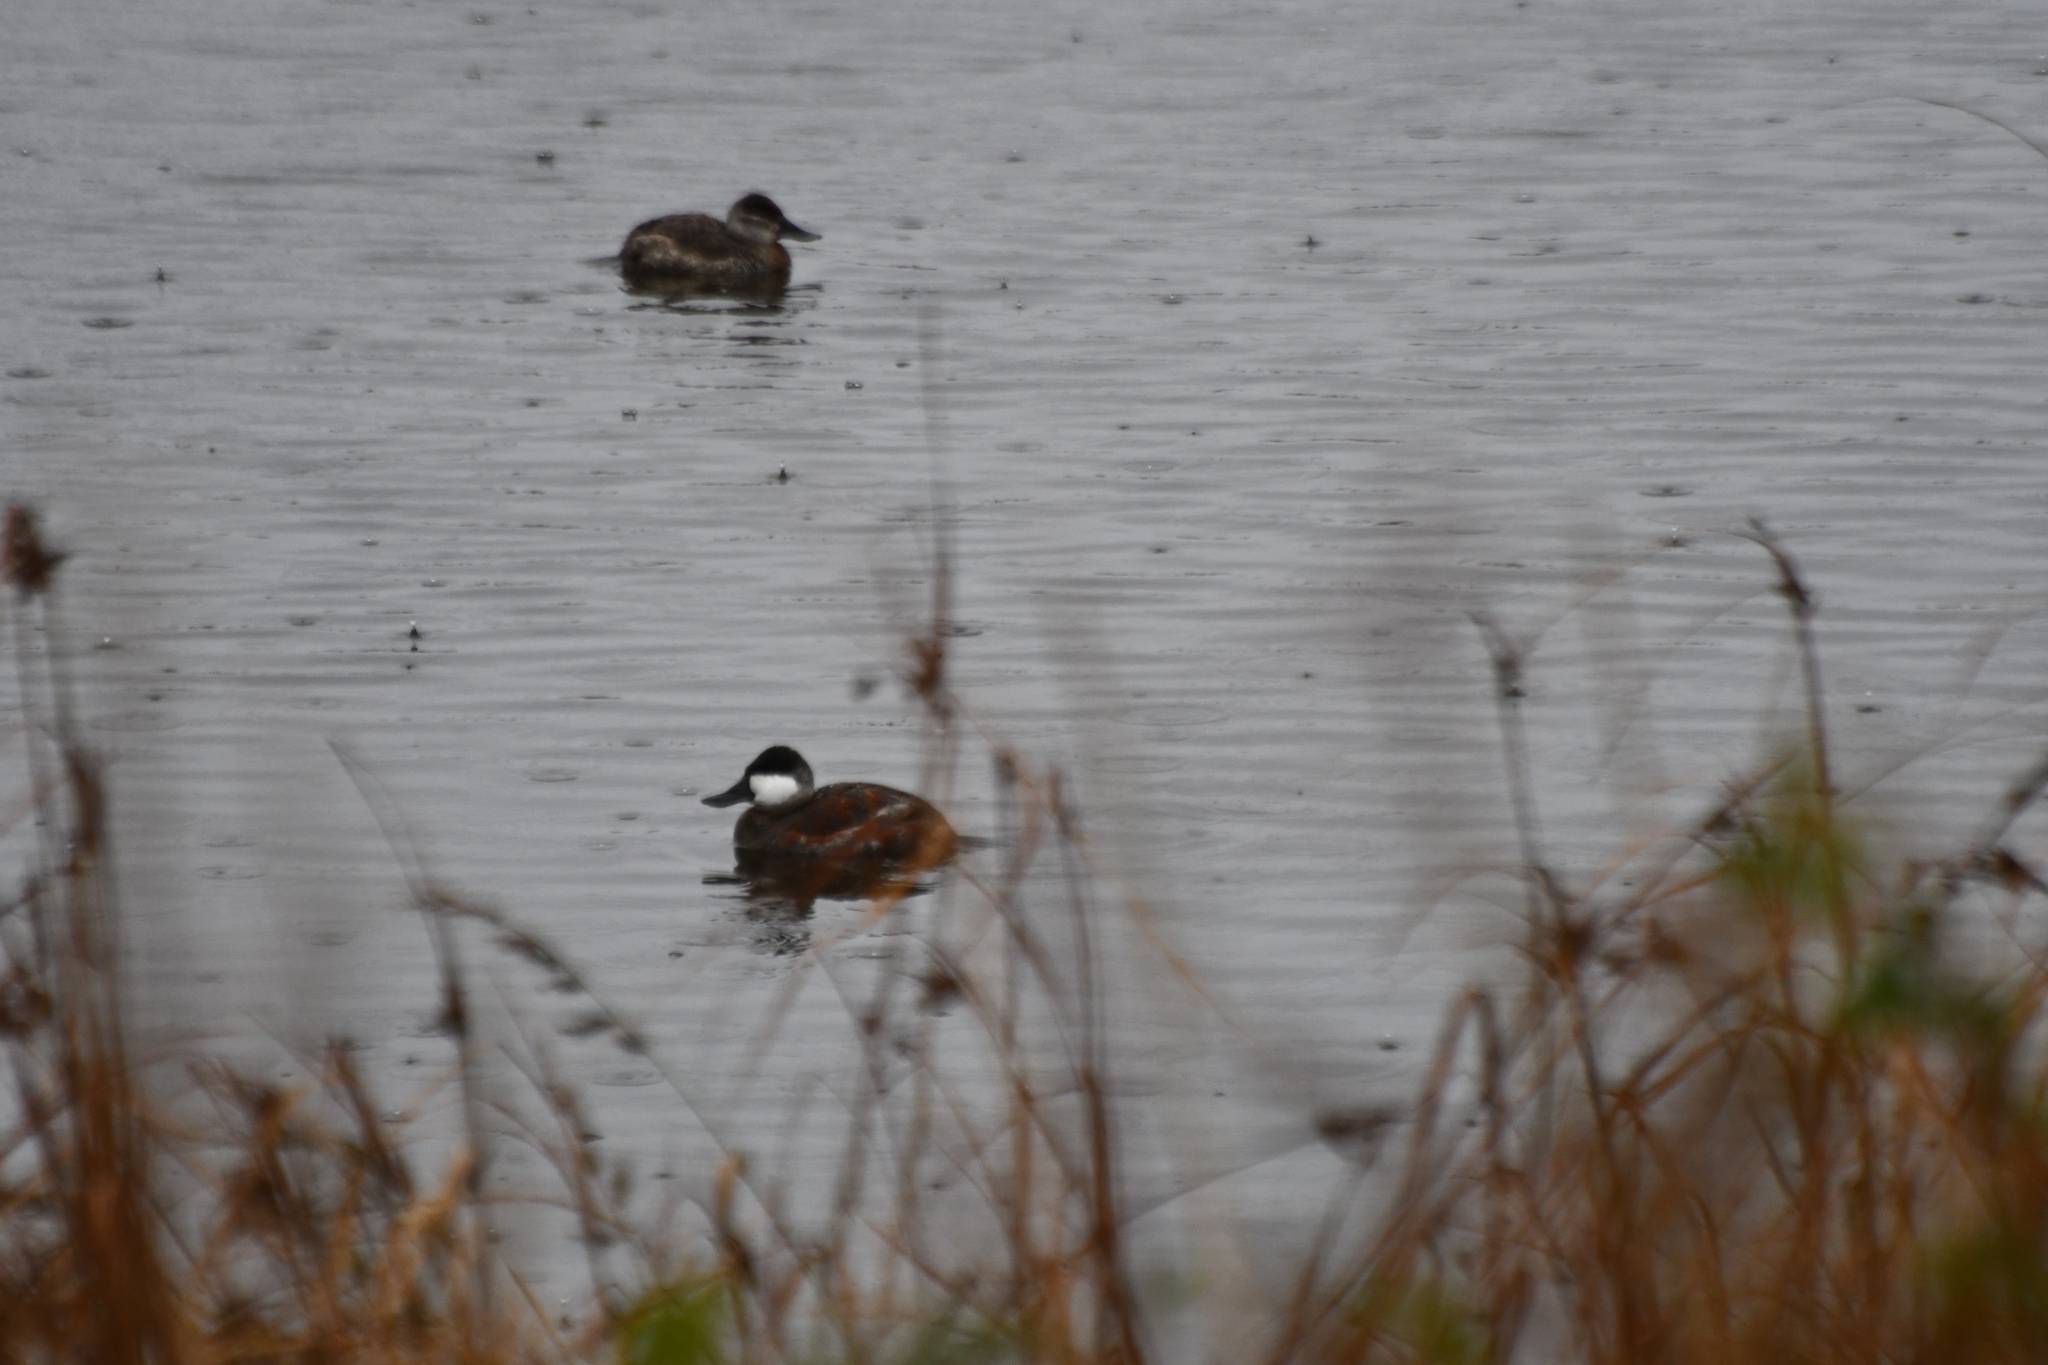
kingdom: Animalia
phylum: Chordata
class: Aves
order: Anseriformes
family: Anatidae
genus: Oxyura
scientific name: Oxyura jamaicensis
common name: Ruddy duck
